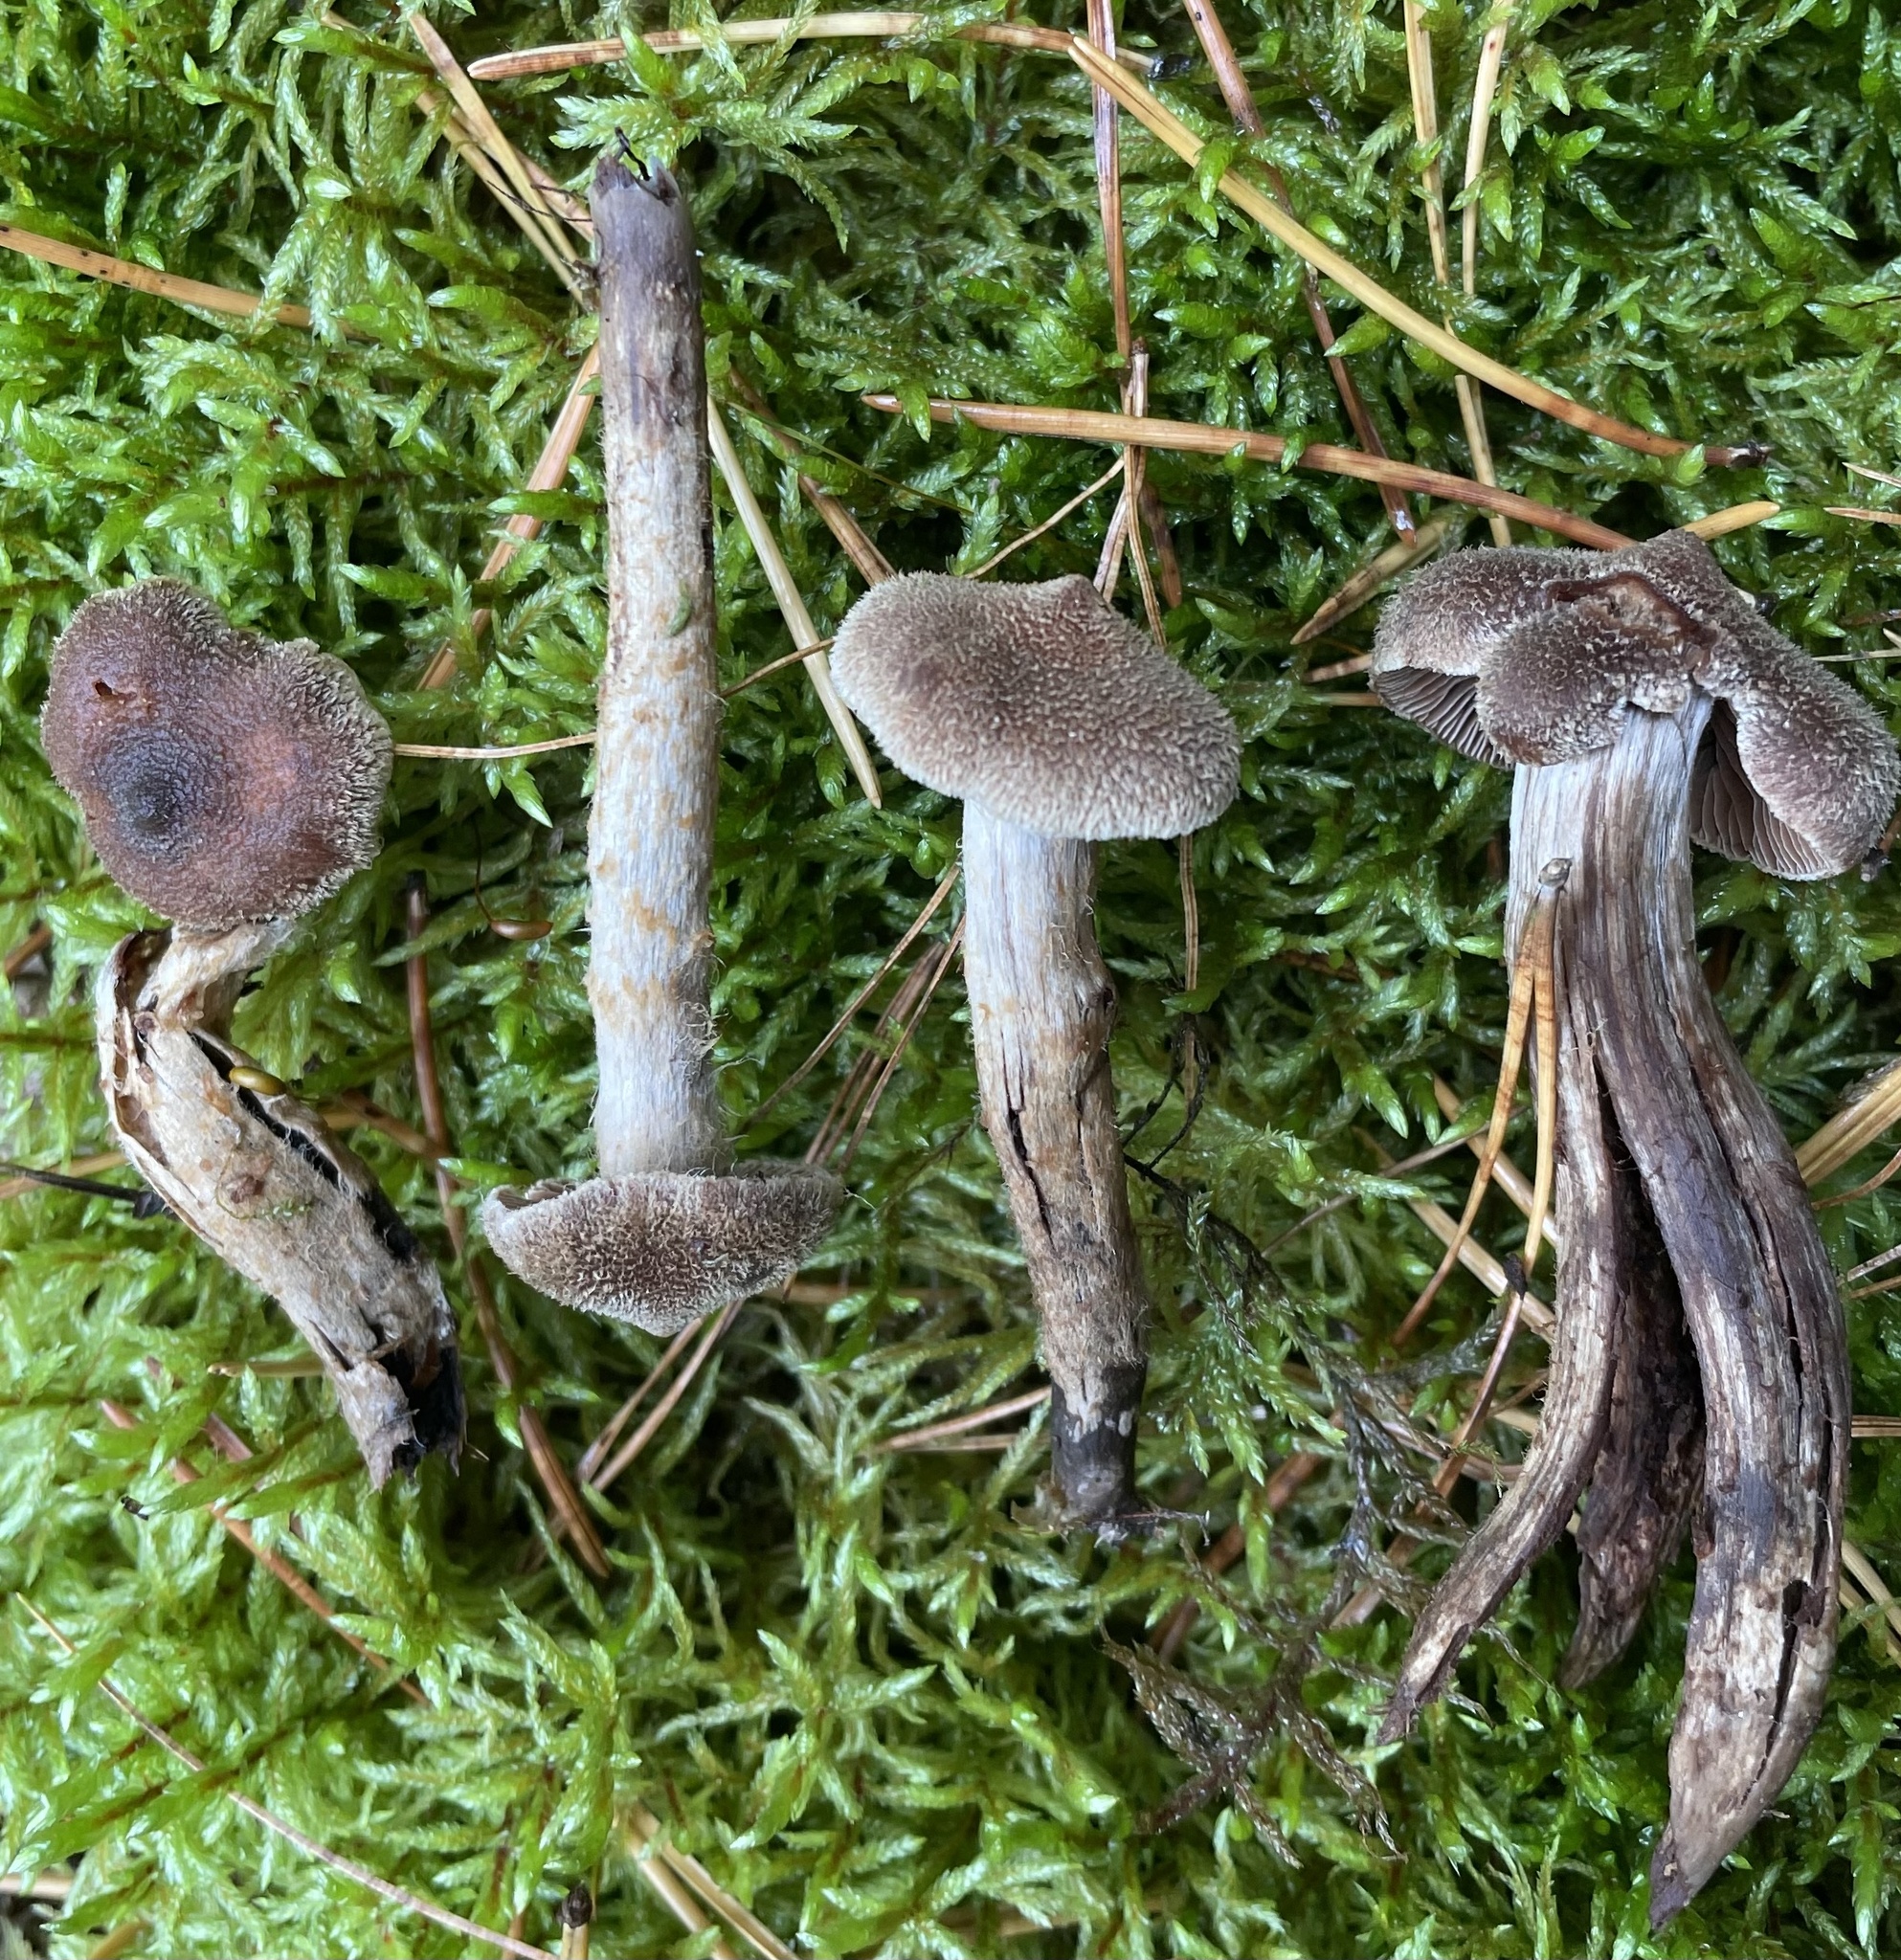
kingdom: Fungi
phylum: Basidiomycota
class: Agaricomycetes
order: Agaricales
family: Cortinariaceae
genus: Cortinarius
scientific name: Cortinarius angelesianus
